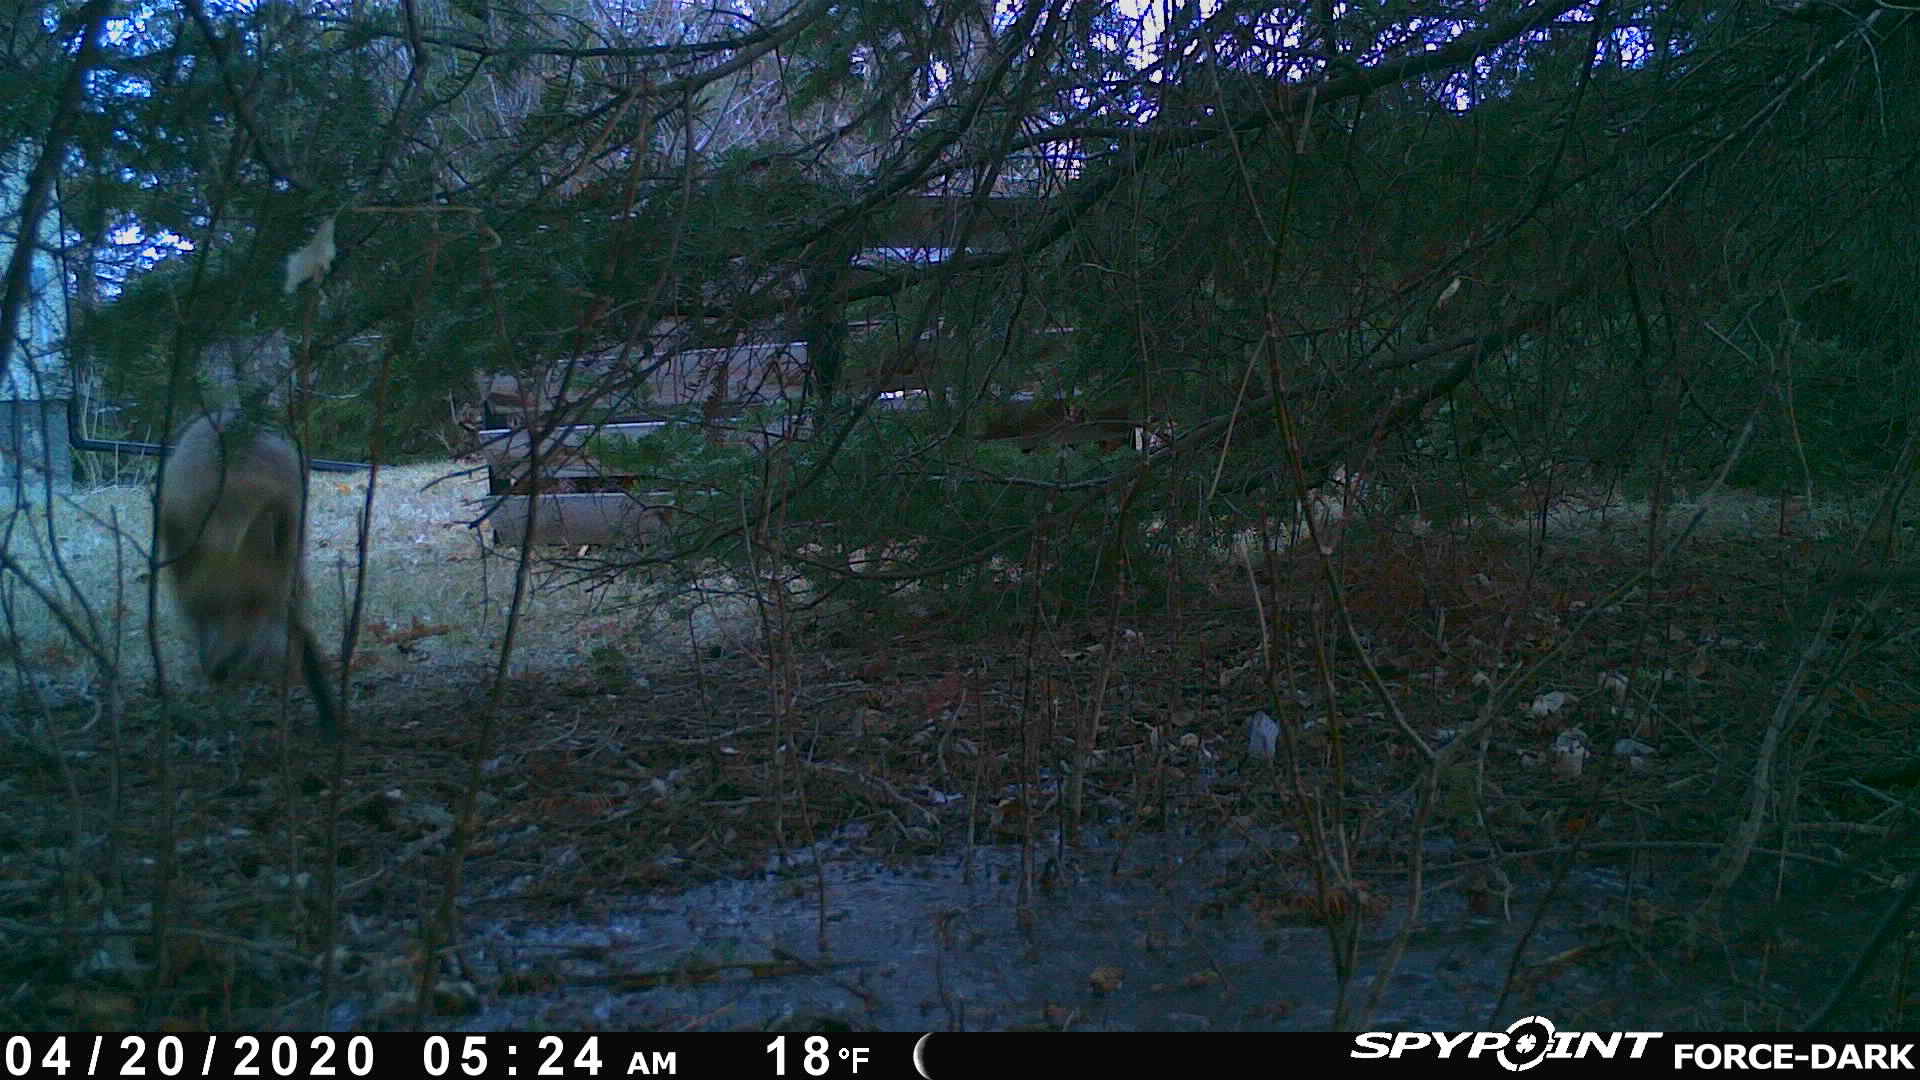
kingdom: Animalia
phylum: Chordata
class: Mammalia
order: Carnivora
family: Canidae
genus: Vulpes
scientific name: Vulpes vulpes
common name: Red fox
